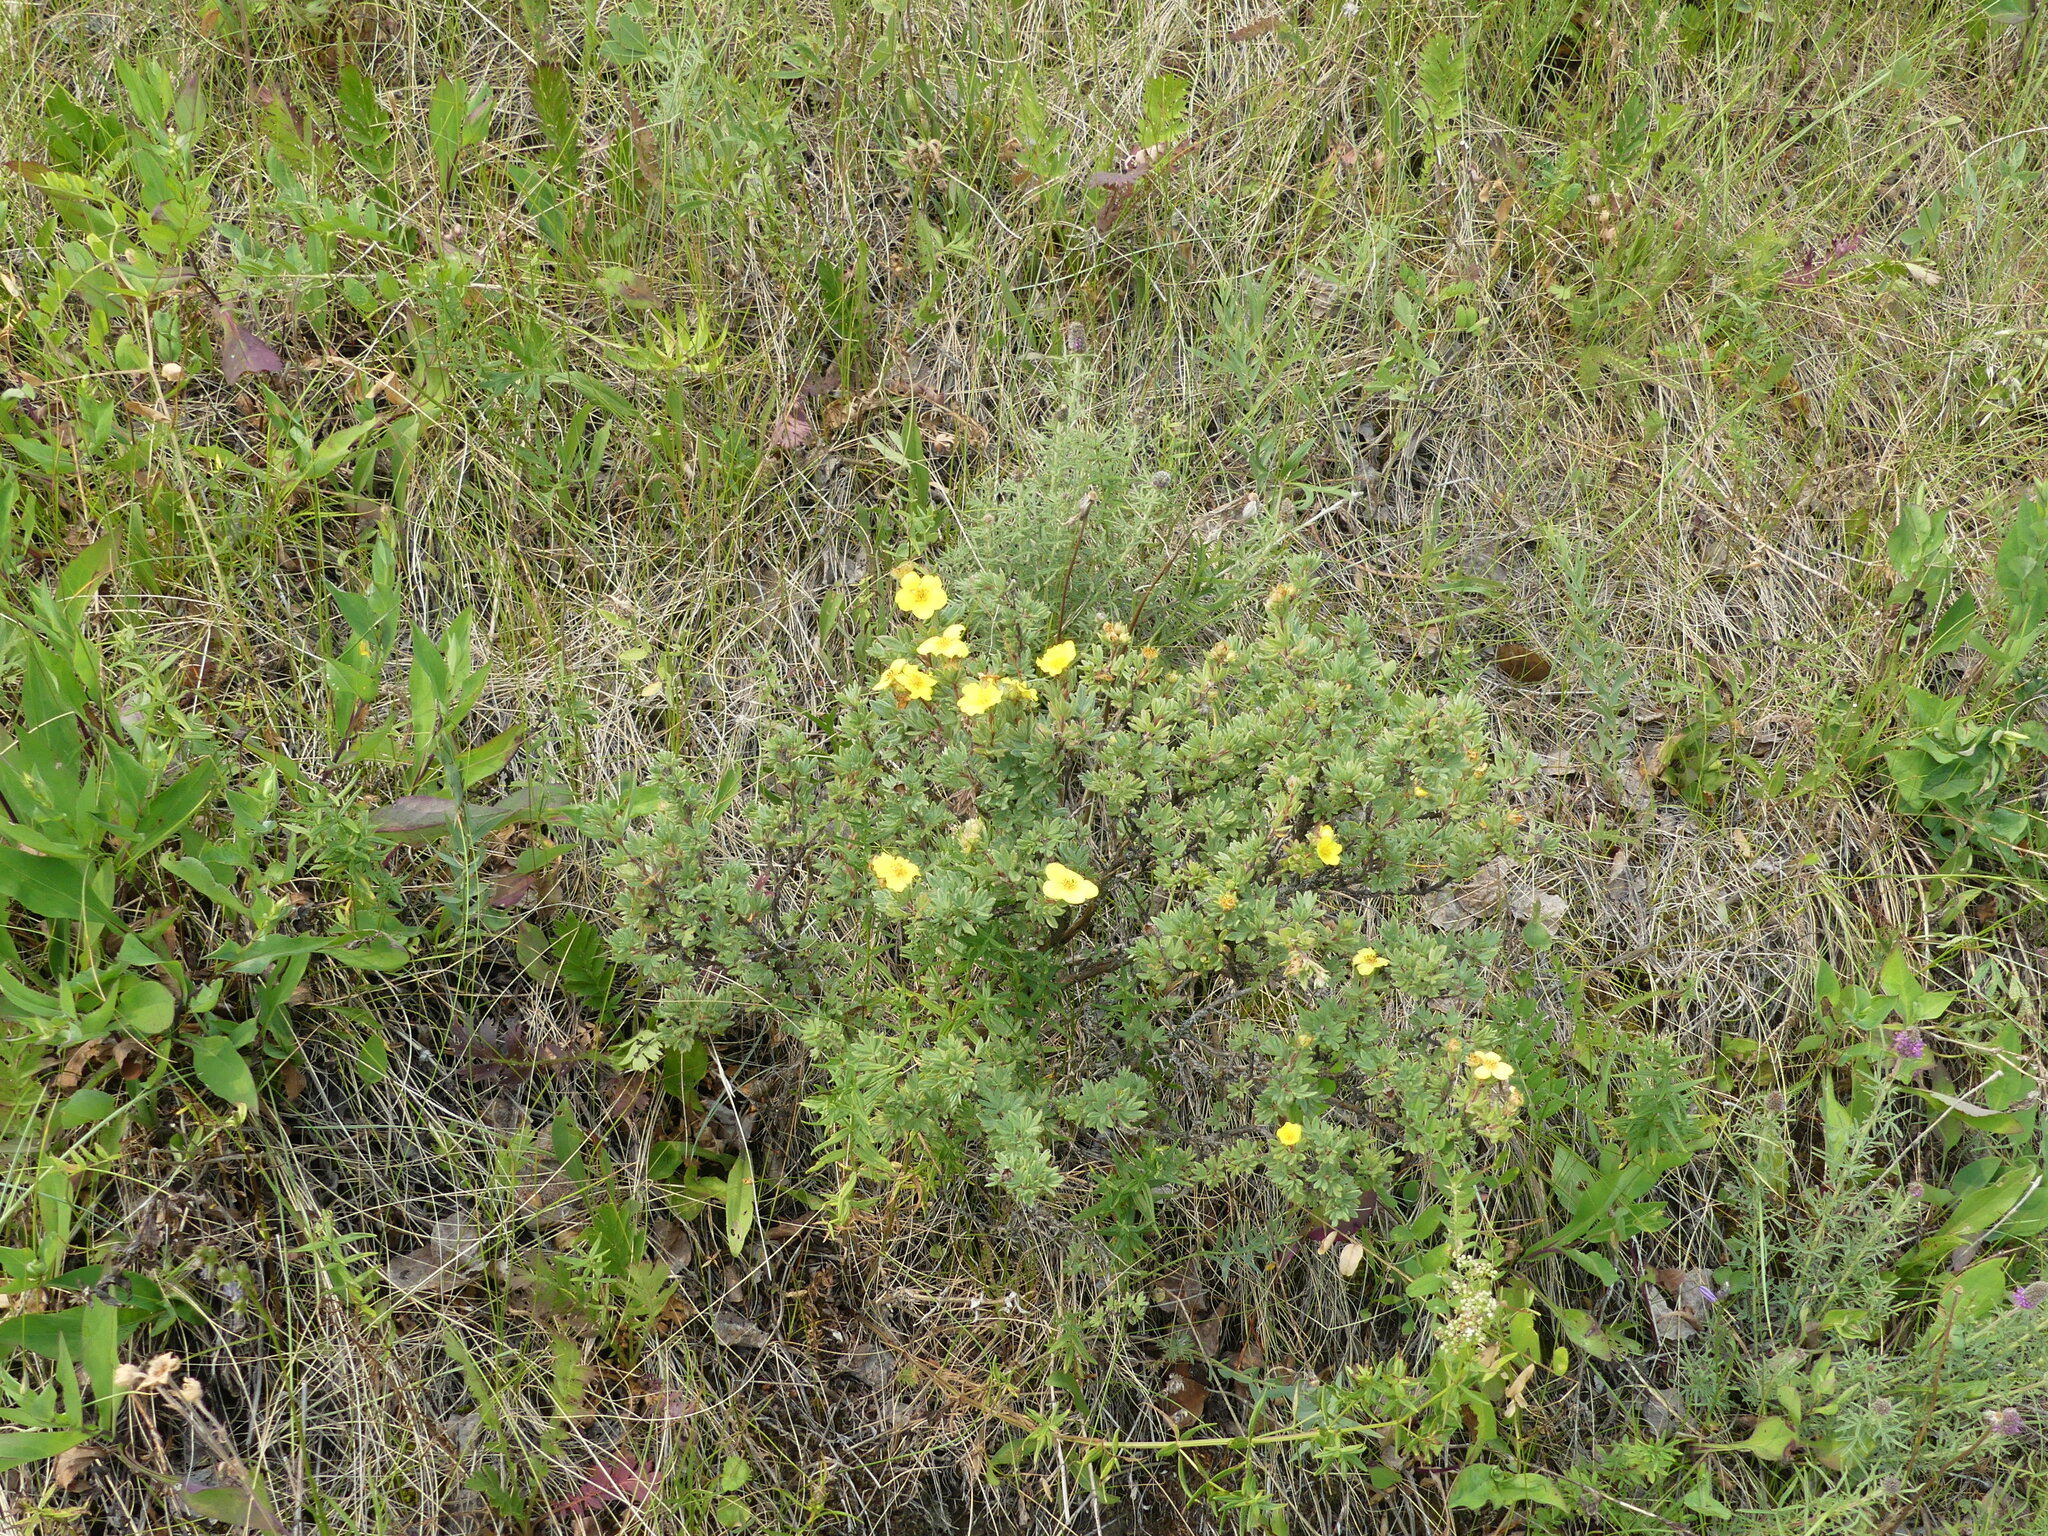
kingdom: Plantae
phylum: Tracheophyta
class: Magnoliopsida
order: Rosales
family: Rosaceae
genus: Dasiphora
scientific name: Dasiphora fruticosa
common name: Shrubby cinquefoil
